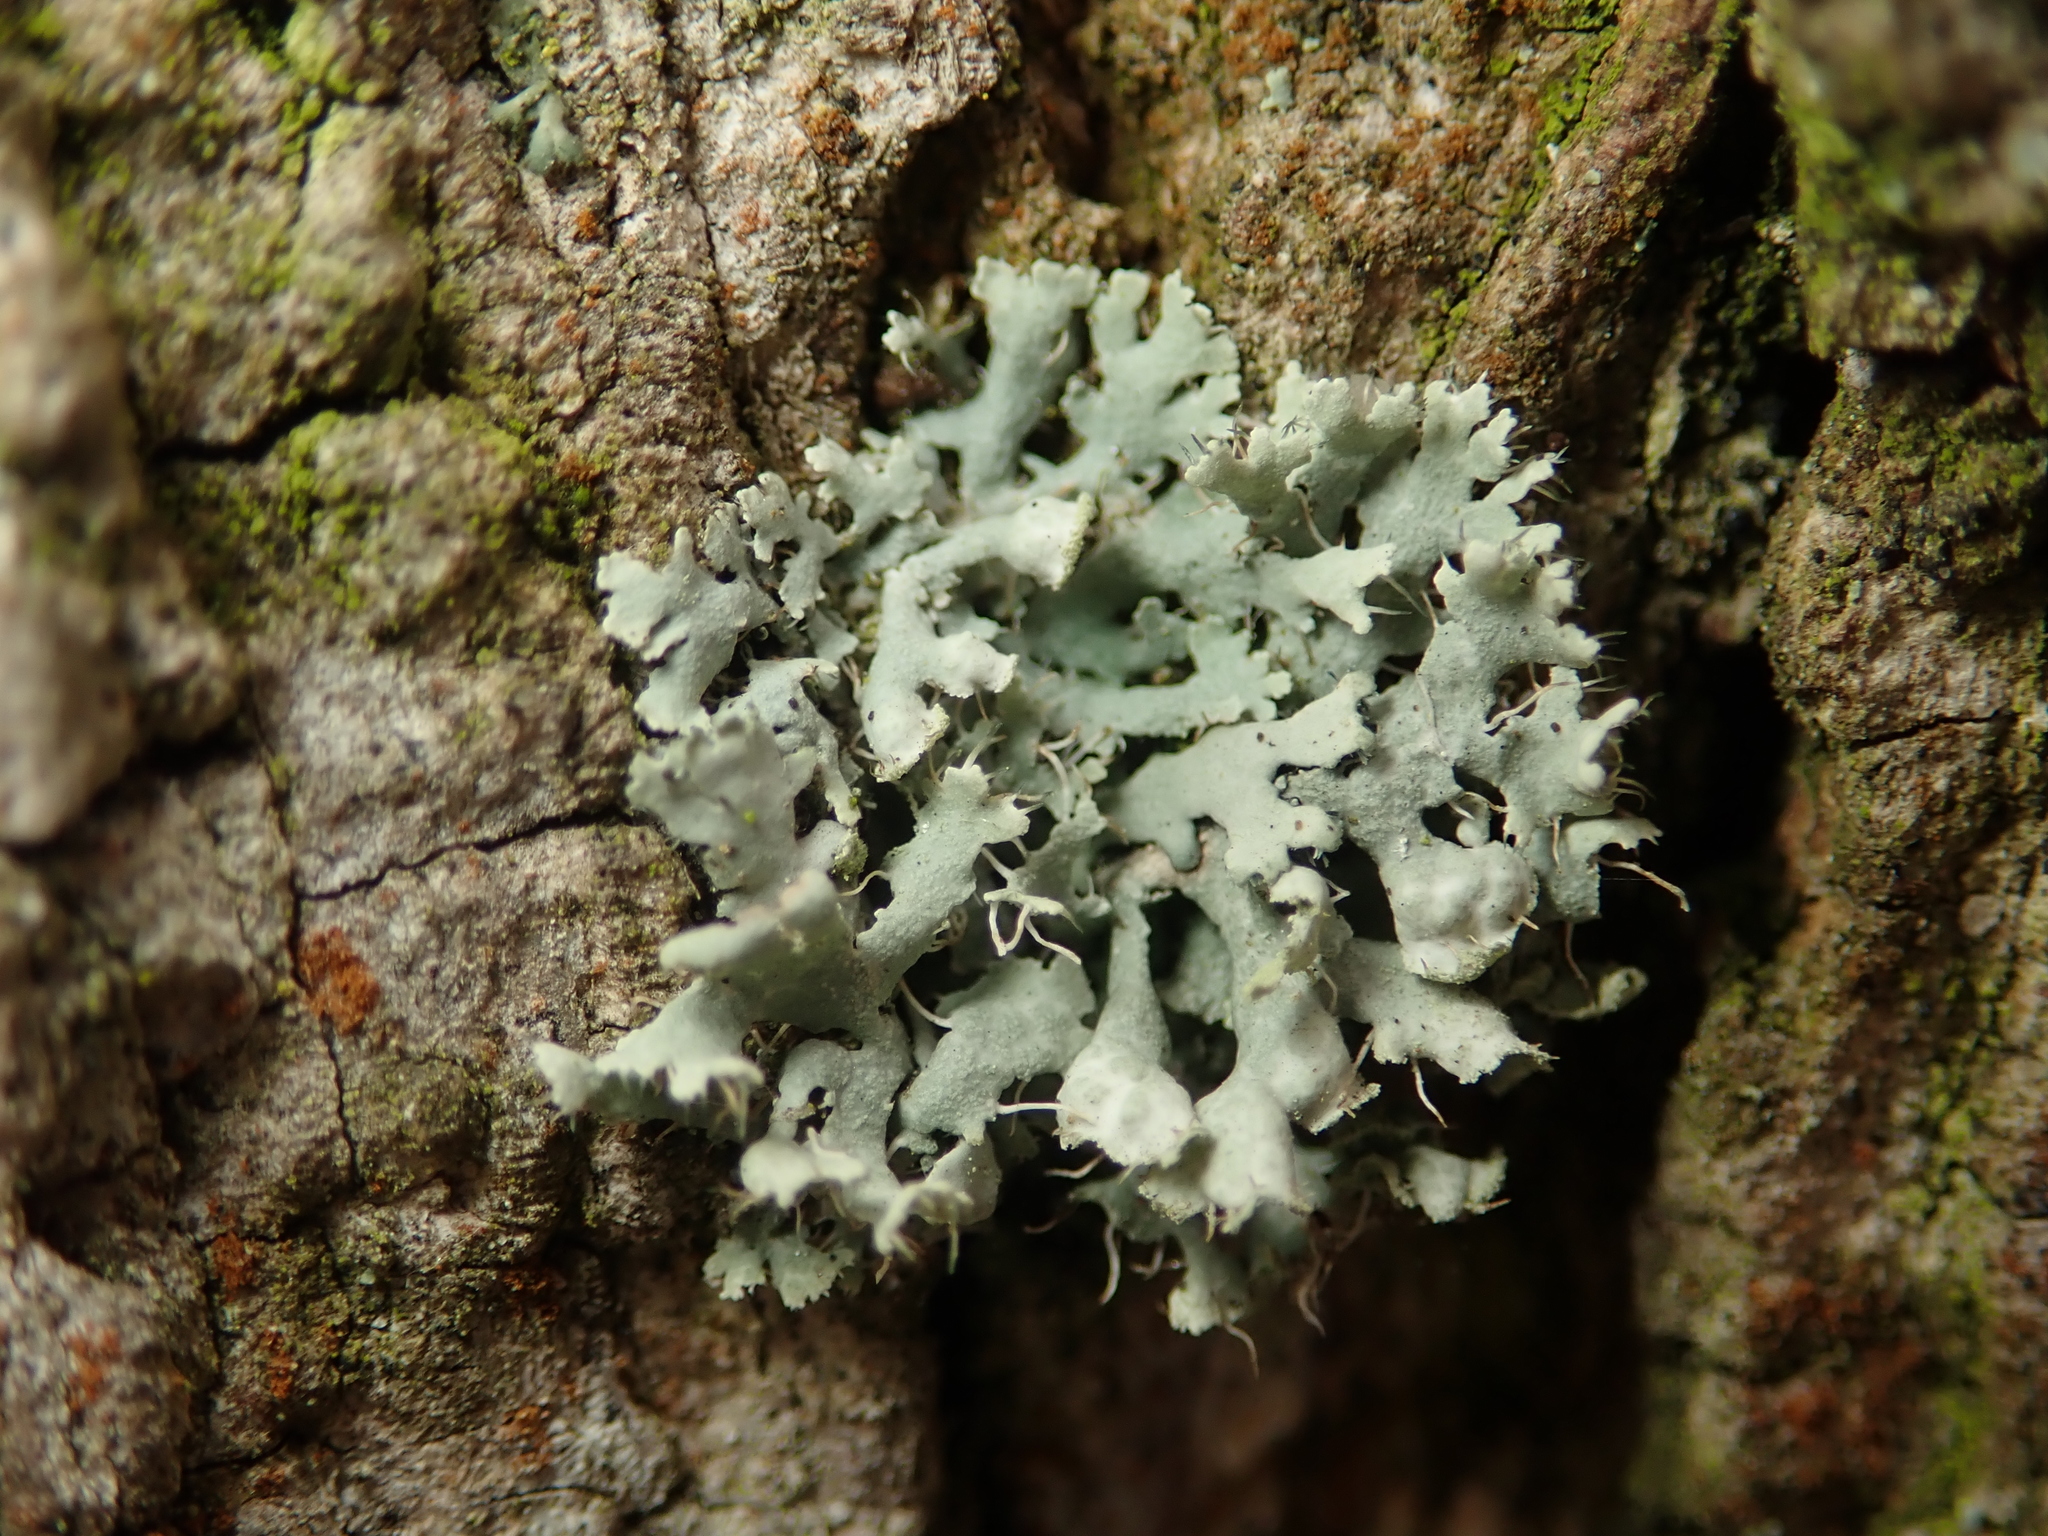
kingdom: Fungi
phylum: Ascomycota
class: Lecanoromycetes
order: Caliciales
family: Physciaceae
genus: Physcia
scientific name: Physcia adscendens
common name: Hooded rosette lichen
